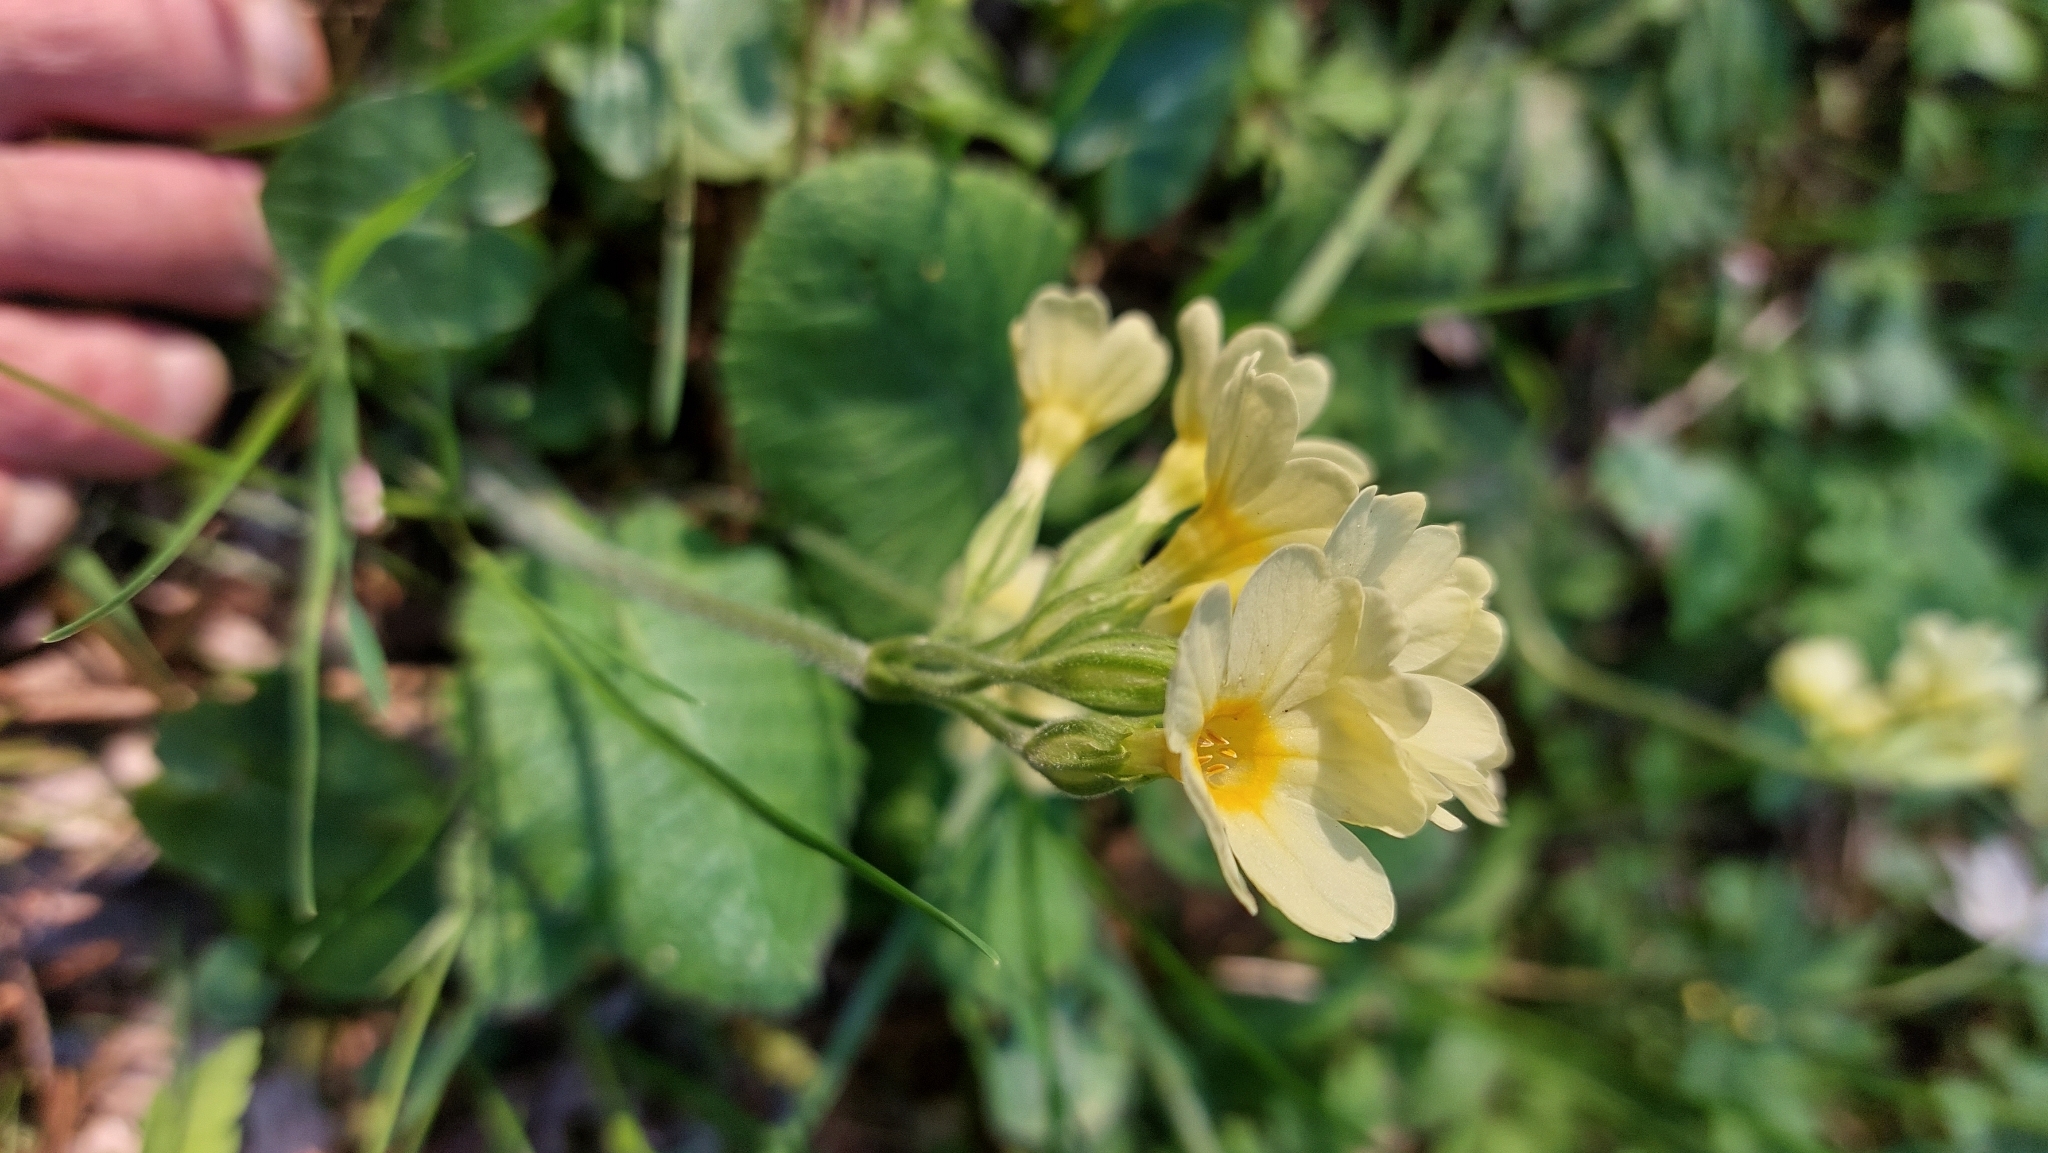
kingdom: Plantae
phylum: Tracheophyta
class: Magnoliopsida
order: Ericales
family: Primulaceae
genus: Primula
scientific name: Primula elatior
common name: Oxlip
